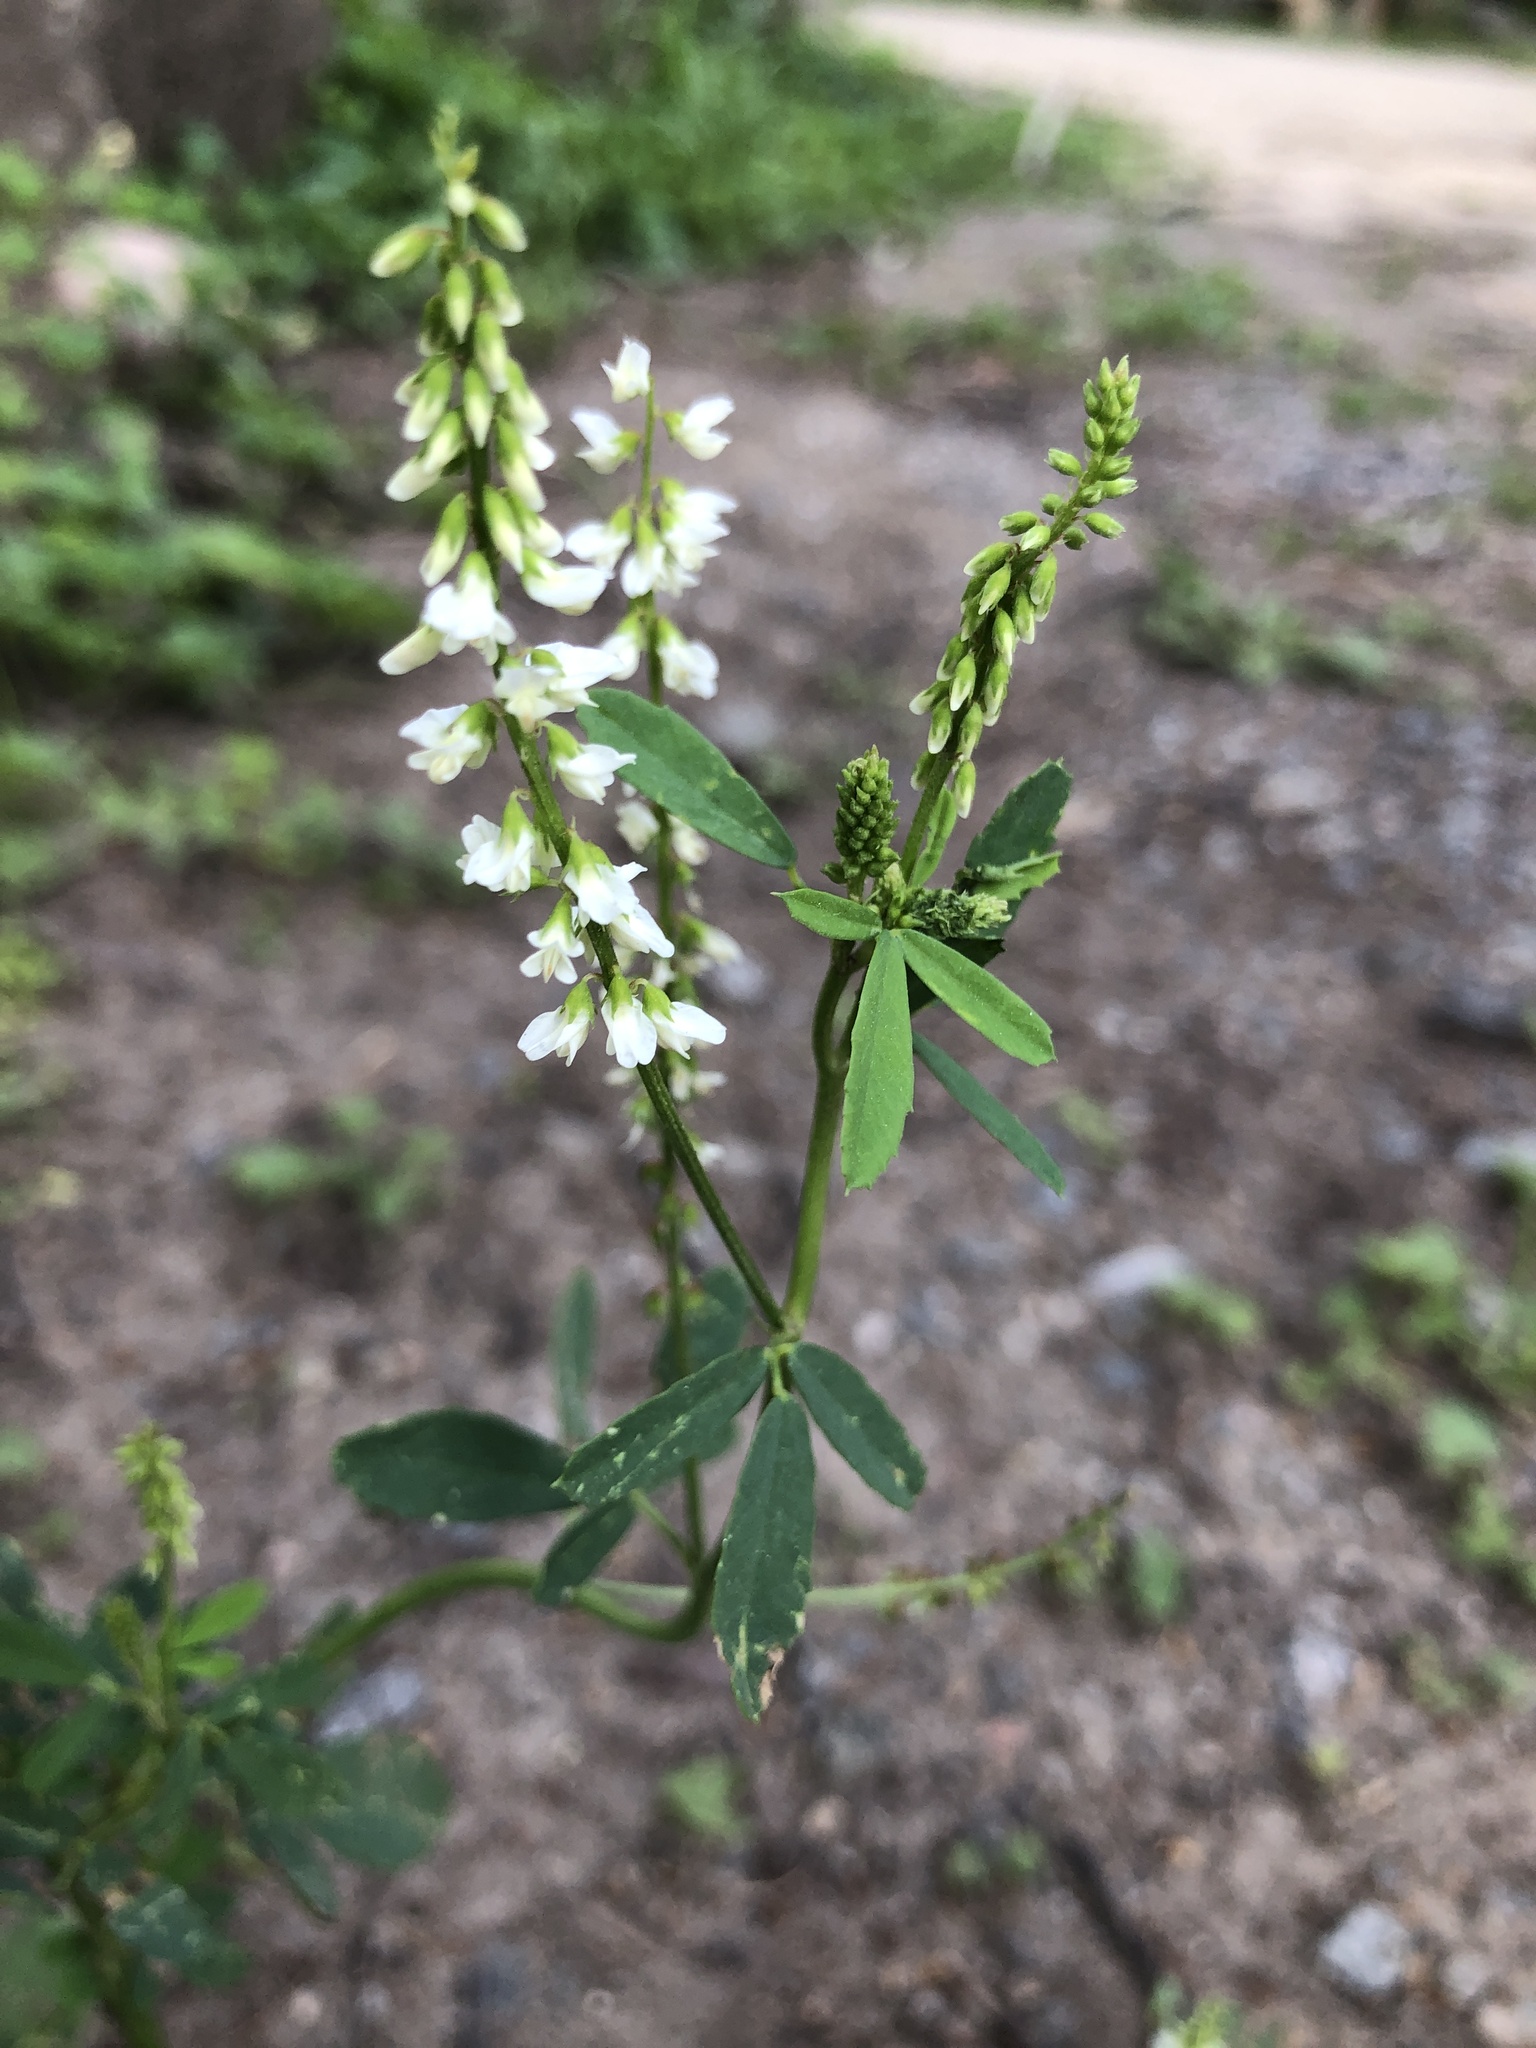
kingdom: Plantae
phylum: Tracheophyta
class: Magnoliopsida
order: Fabales
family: Fabaceae
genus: Melilotus
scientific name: Melilotus albus
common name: White melilot
